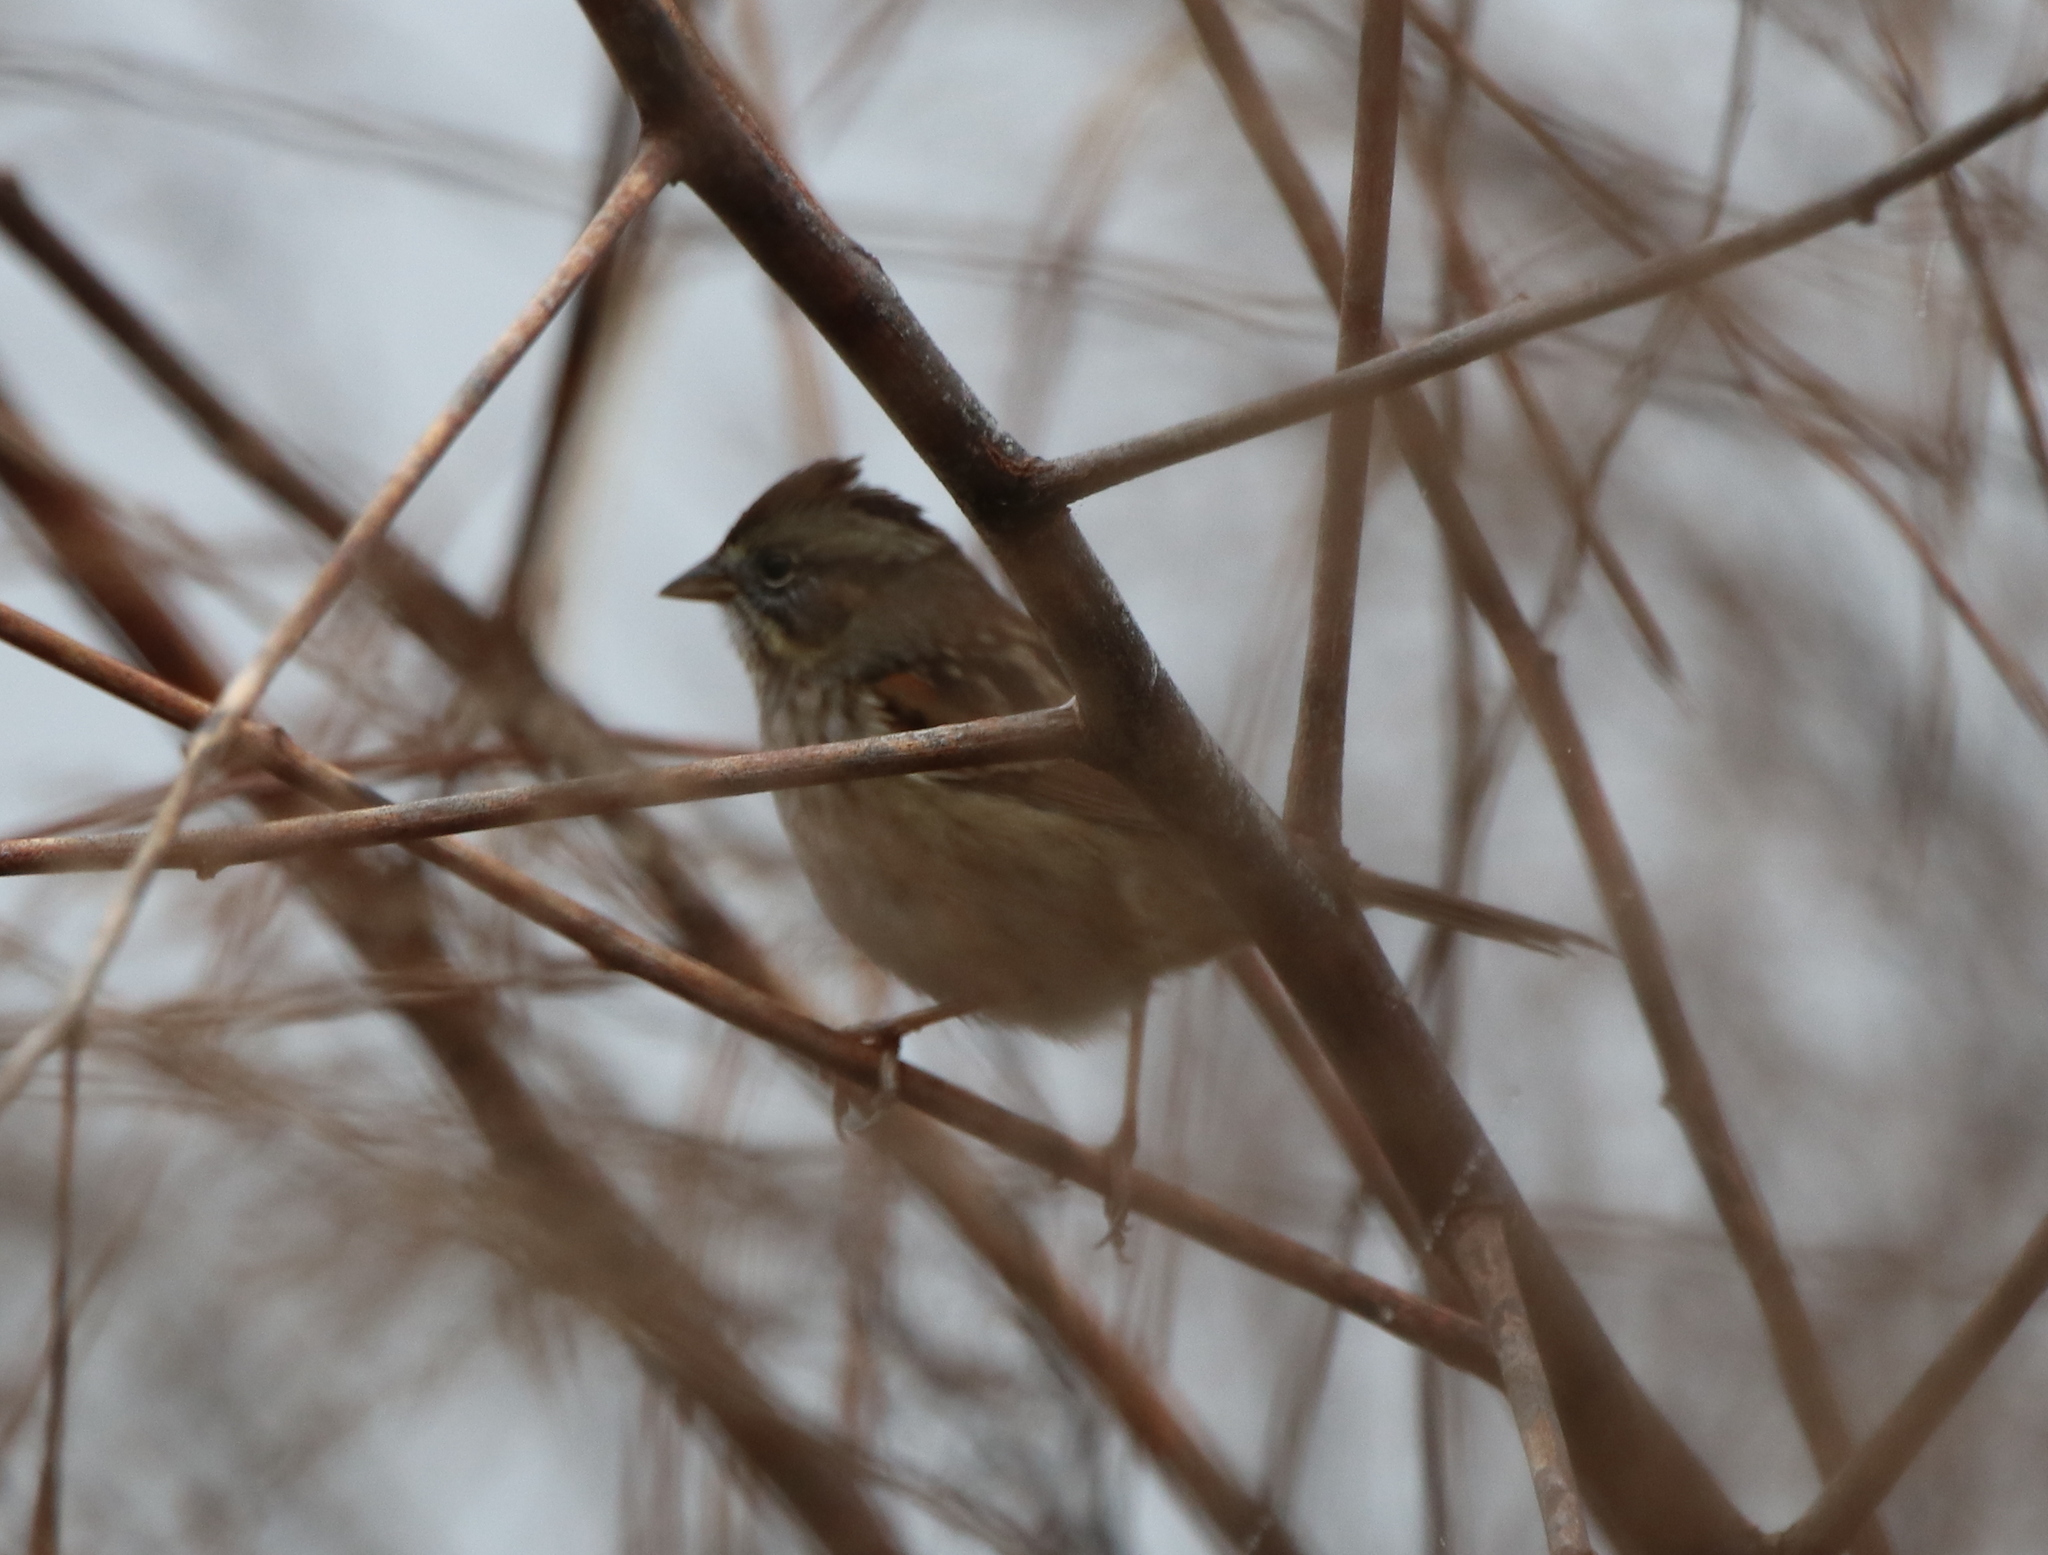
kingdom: Animalia
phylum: Chordata
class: Aves
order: Passeriformes
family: Passerellidae
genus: Melospiza
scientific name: Melospiza georgiana
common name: Swamp sparrow
